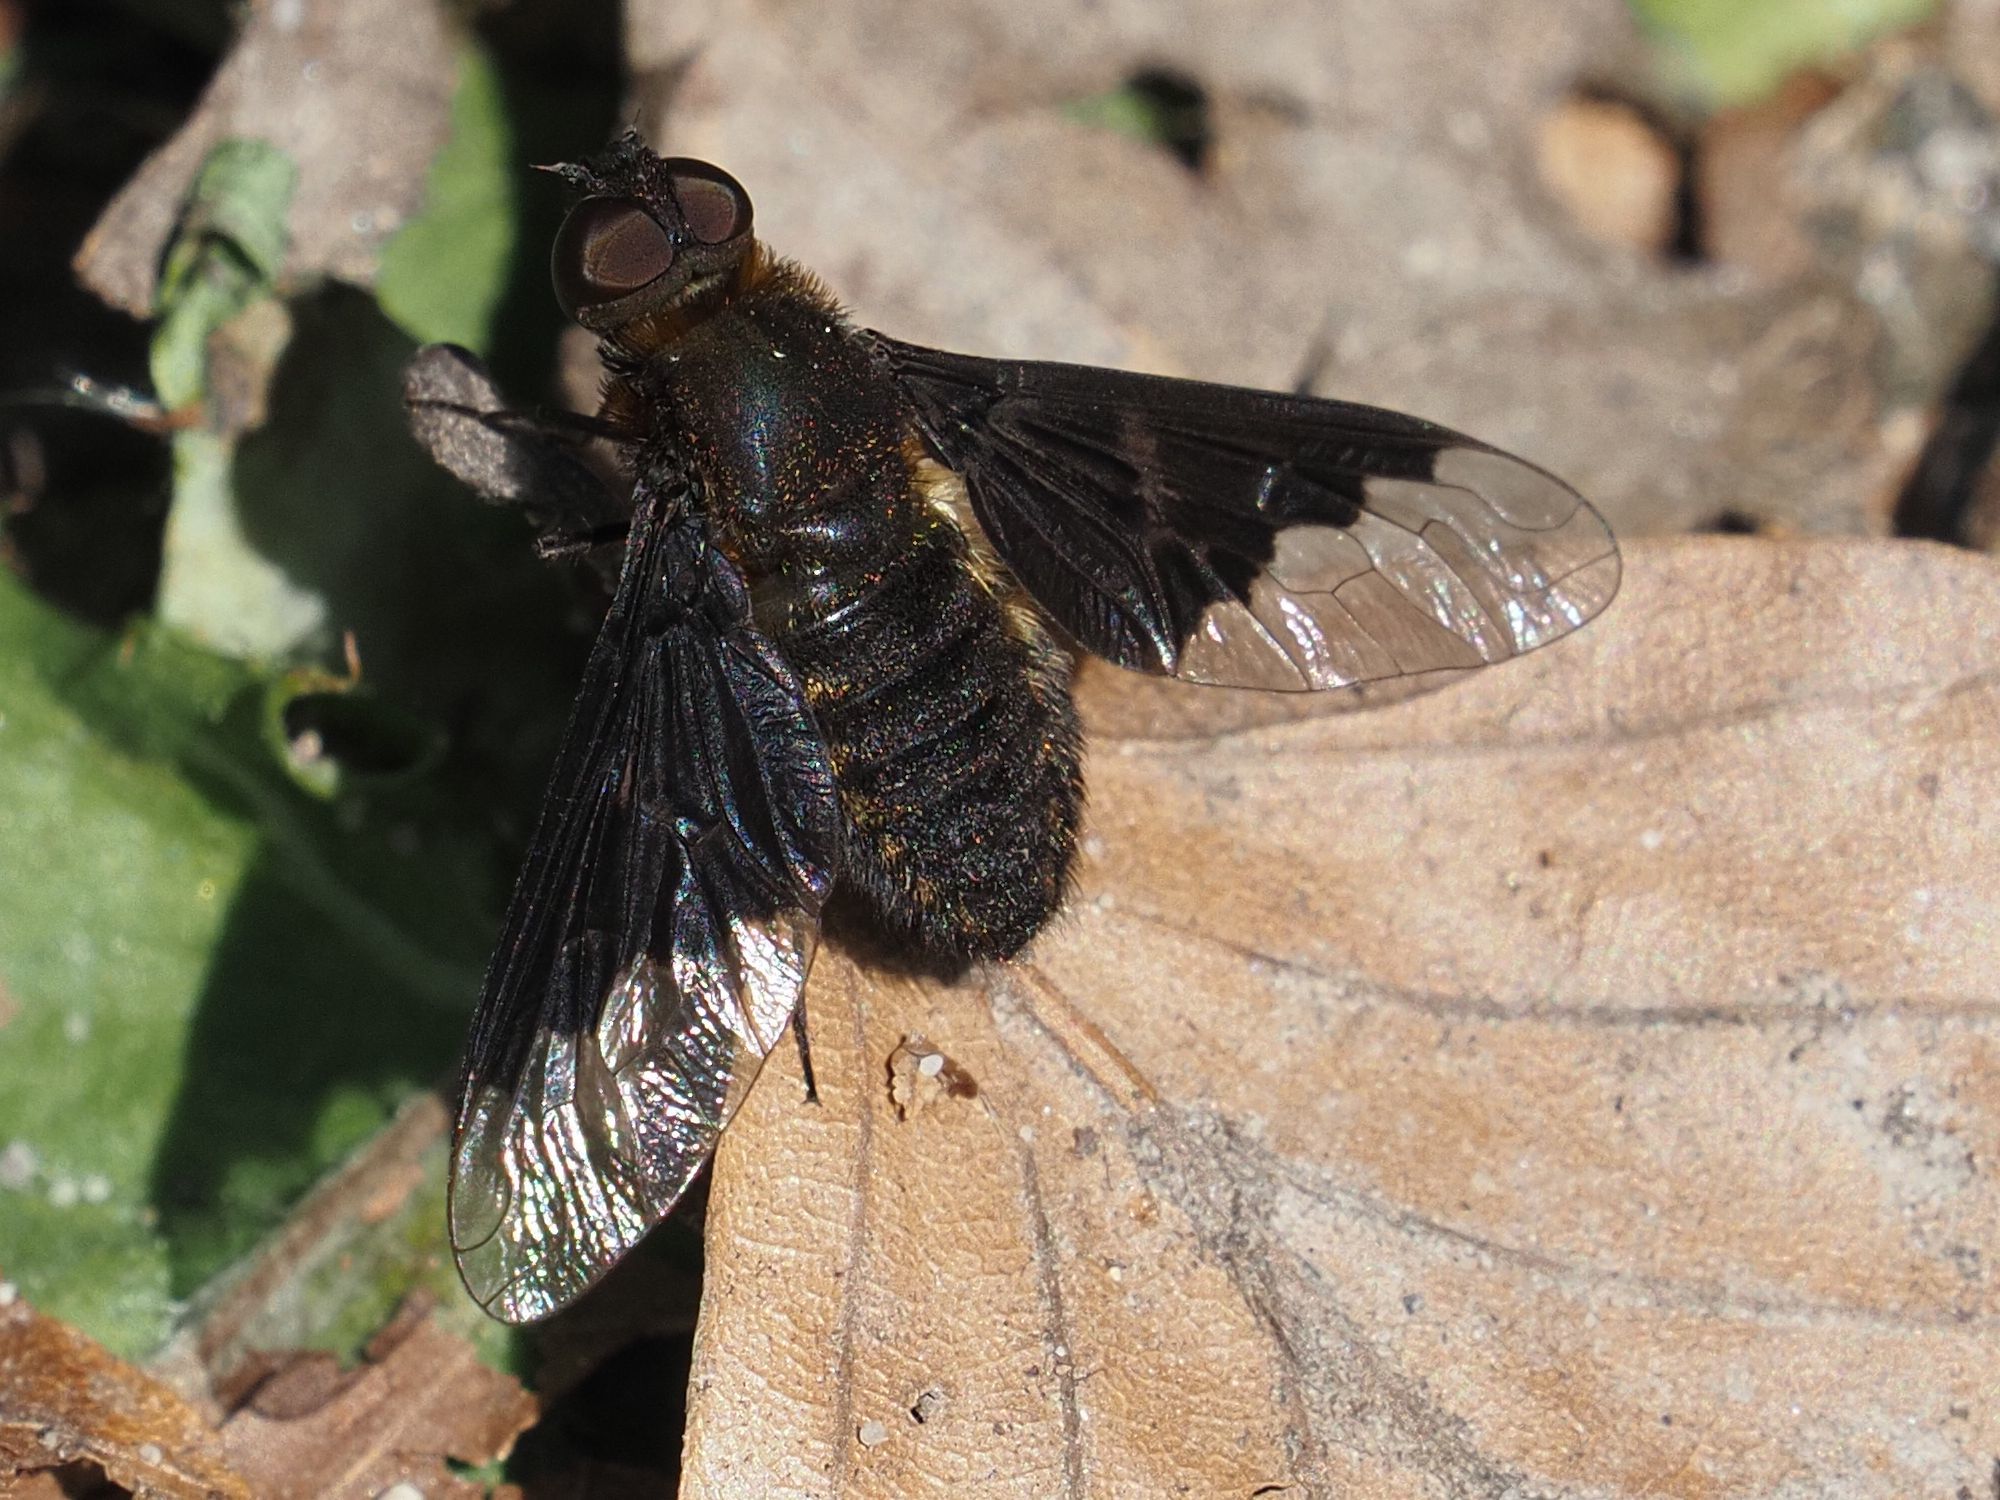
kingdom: Animalia
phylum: Arthropoda
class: Insecta
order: Diptera
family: Bombyliidae
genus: Hemipenthes
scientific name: Hemipenthes morio
